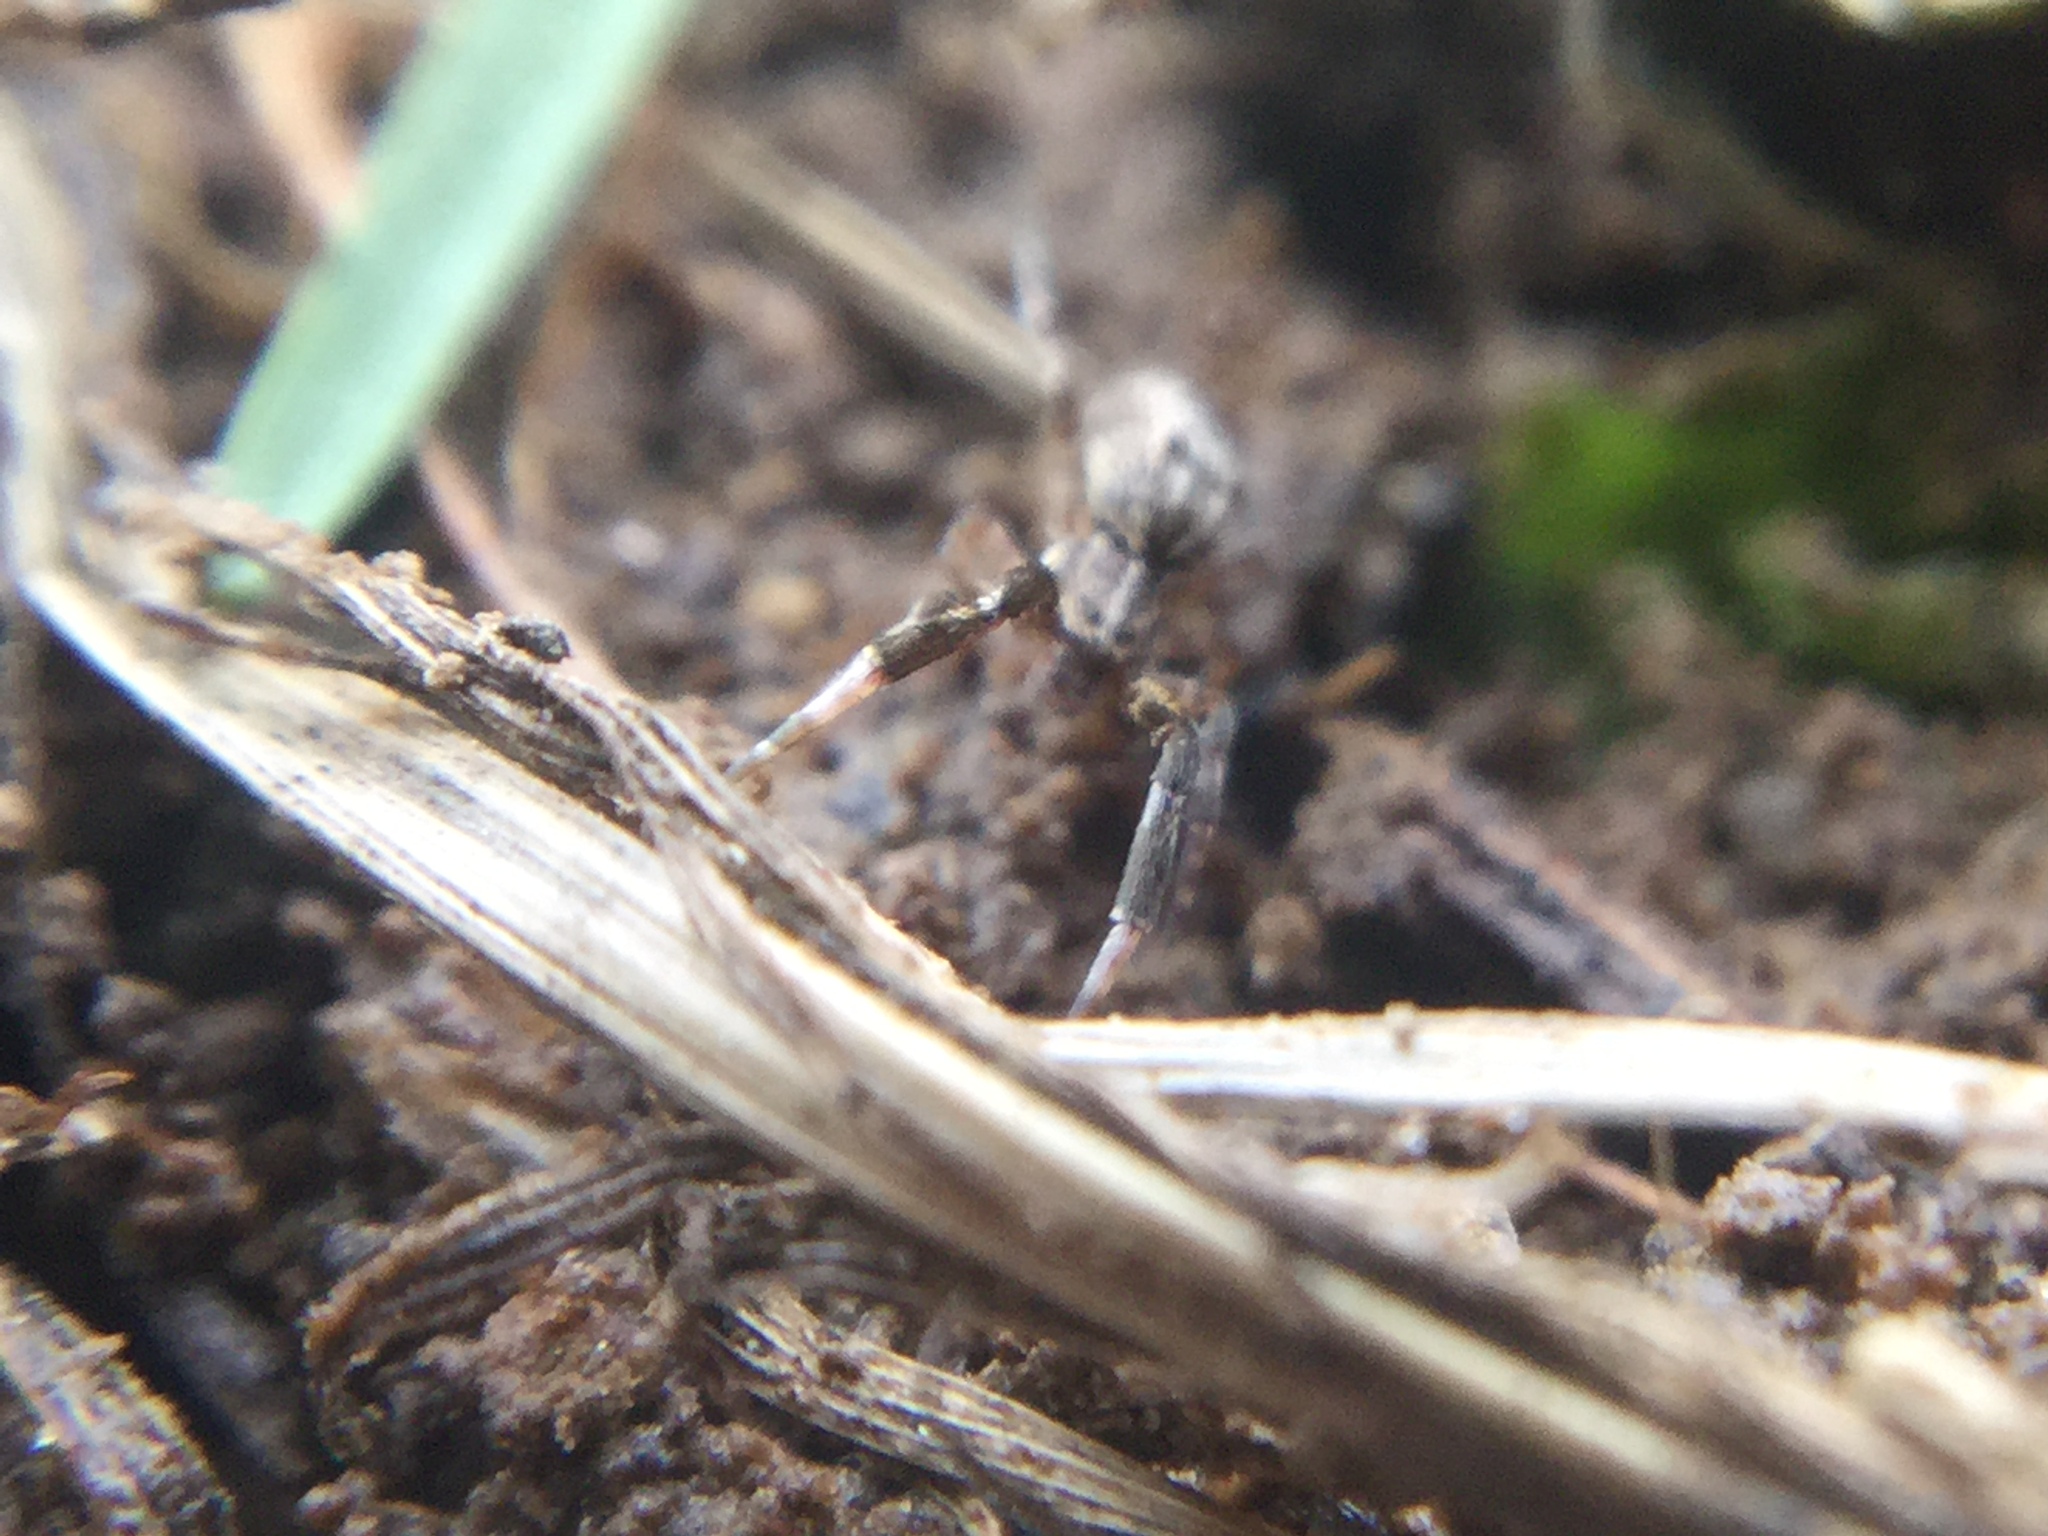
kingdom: Animalia
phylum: Arthropoda
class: Arachnida
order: Araneae
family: Uloboridae
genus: Uloborus
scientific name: Uloborus glomosus
